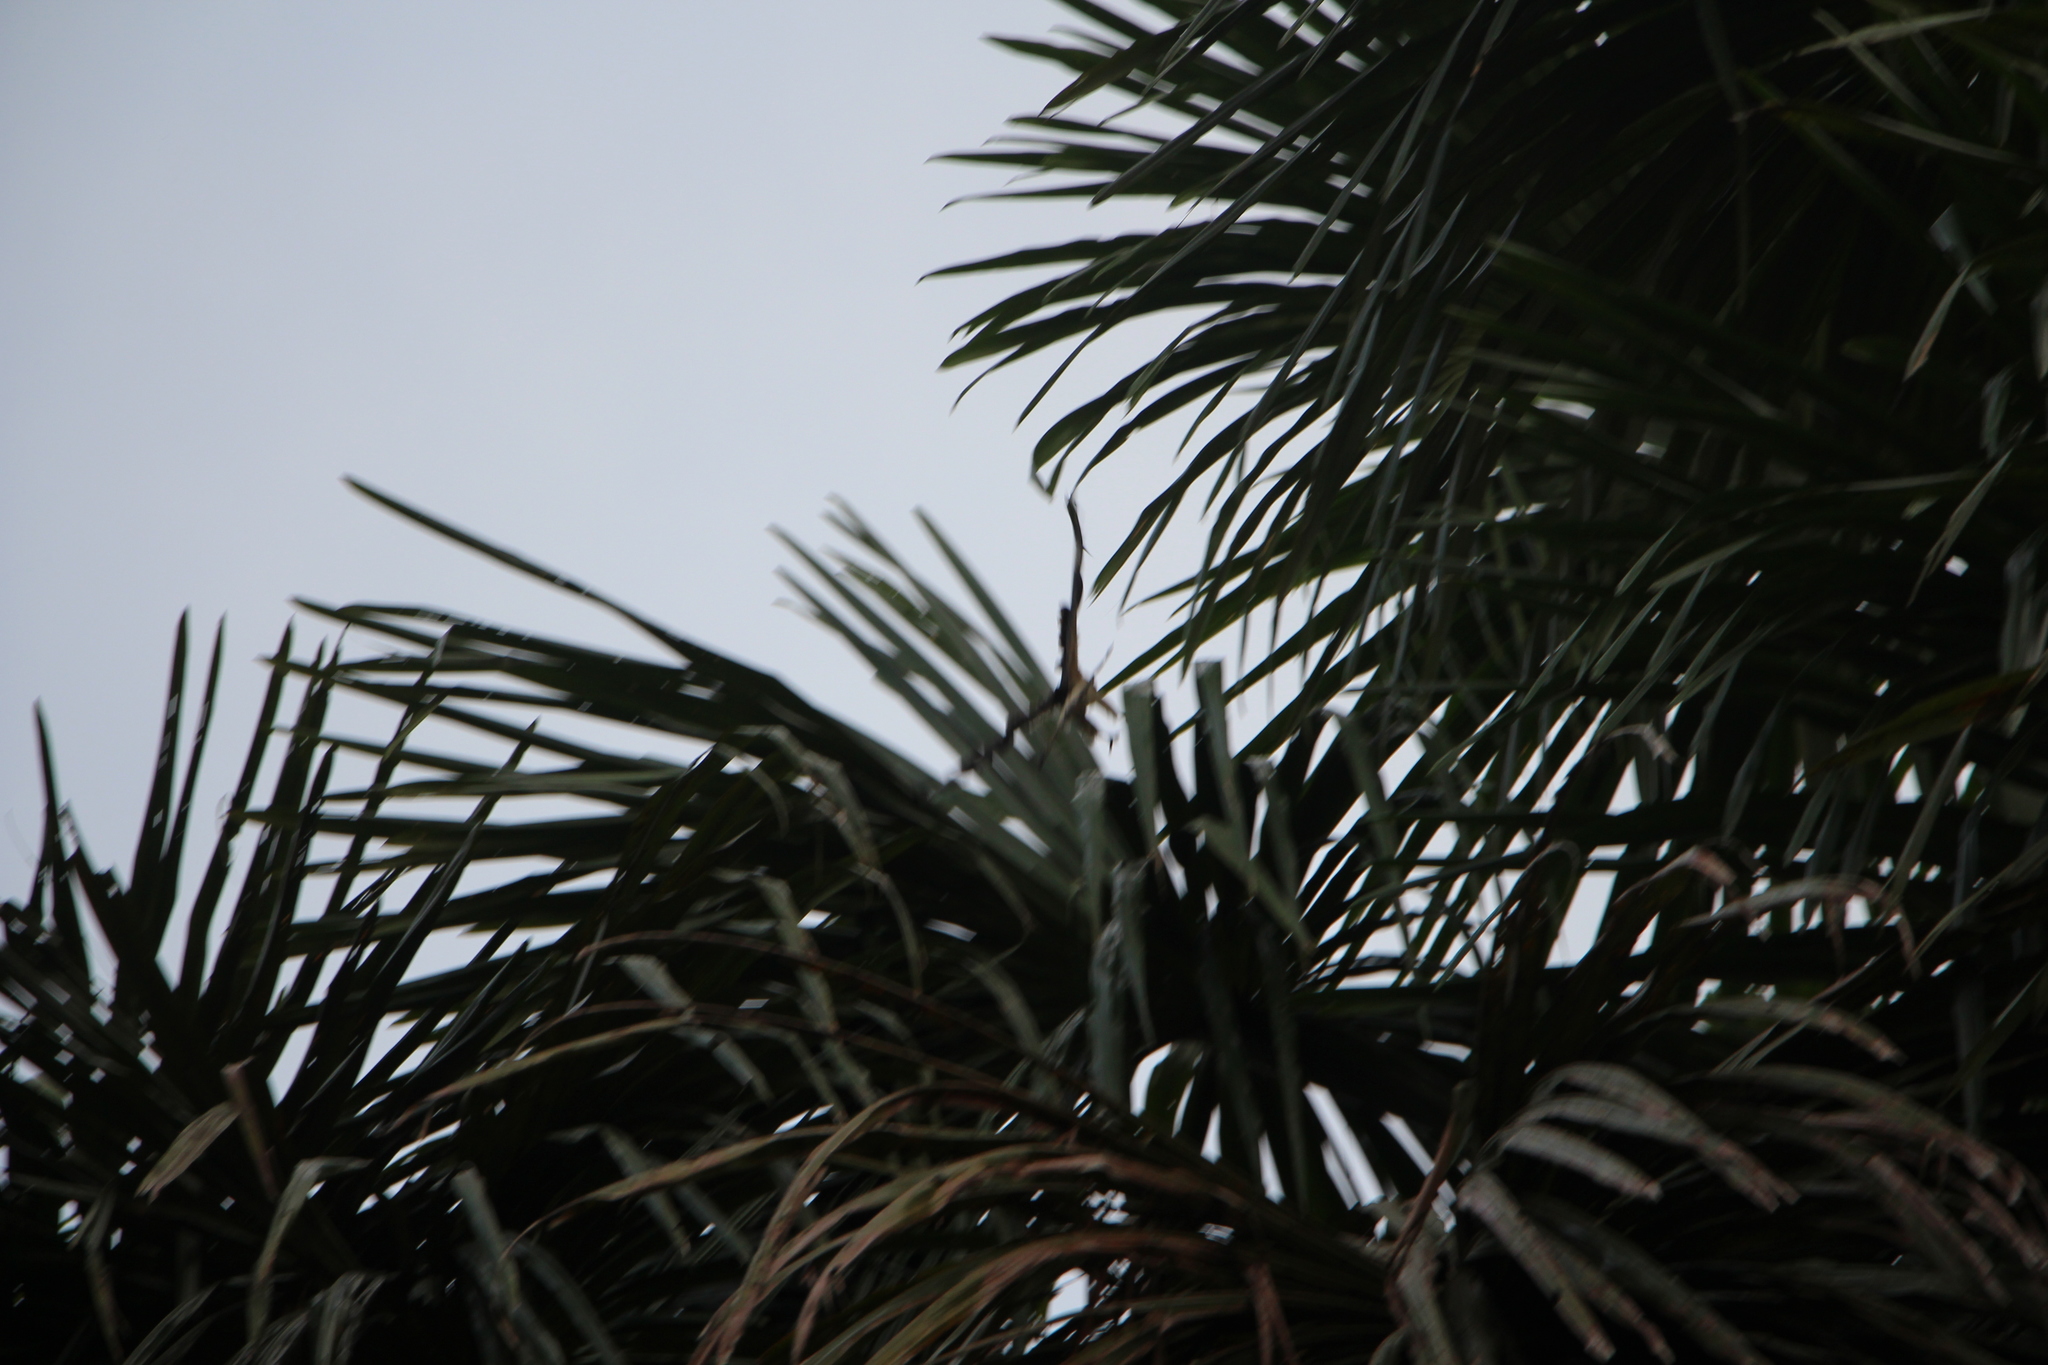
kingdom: Animalia
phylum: Chordata
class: Aves
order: Falconiformes
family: Falconidae
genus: Daptrius
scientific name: Daptrius
